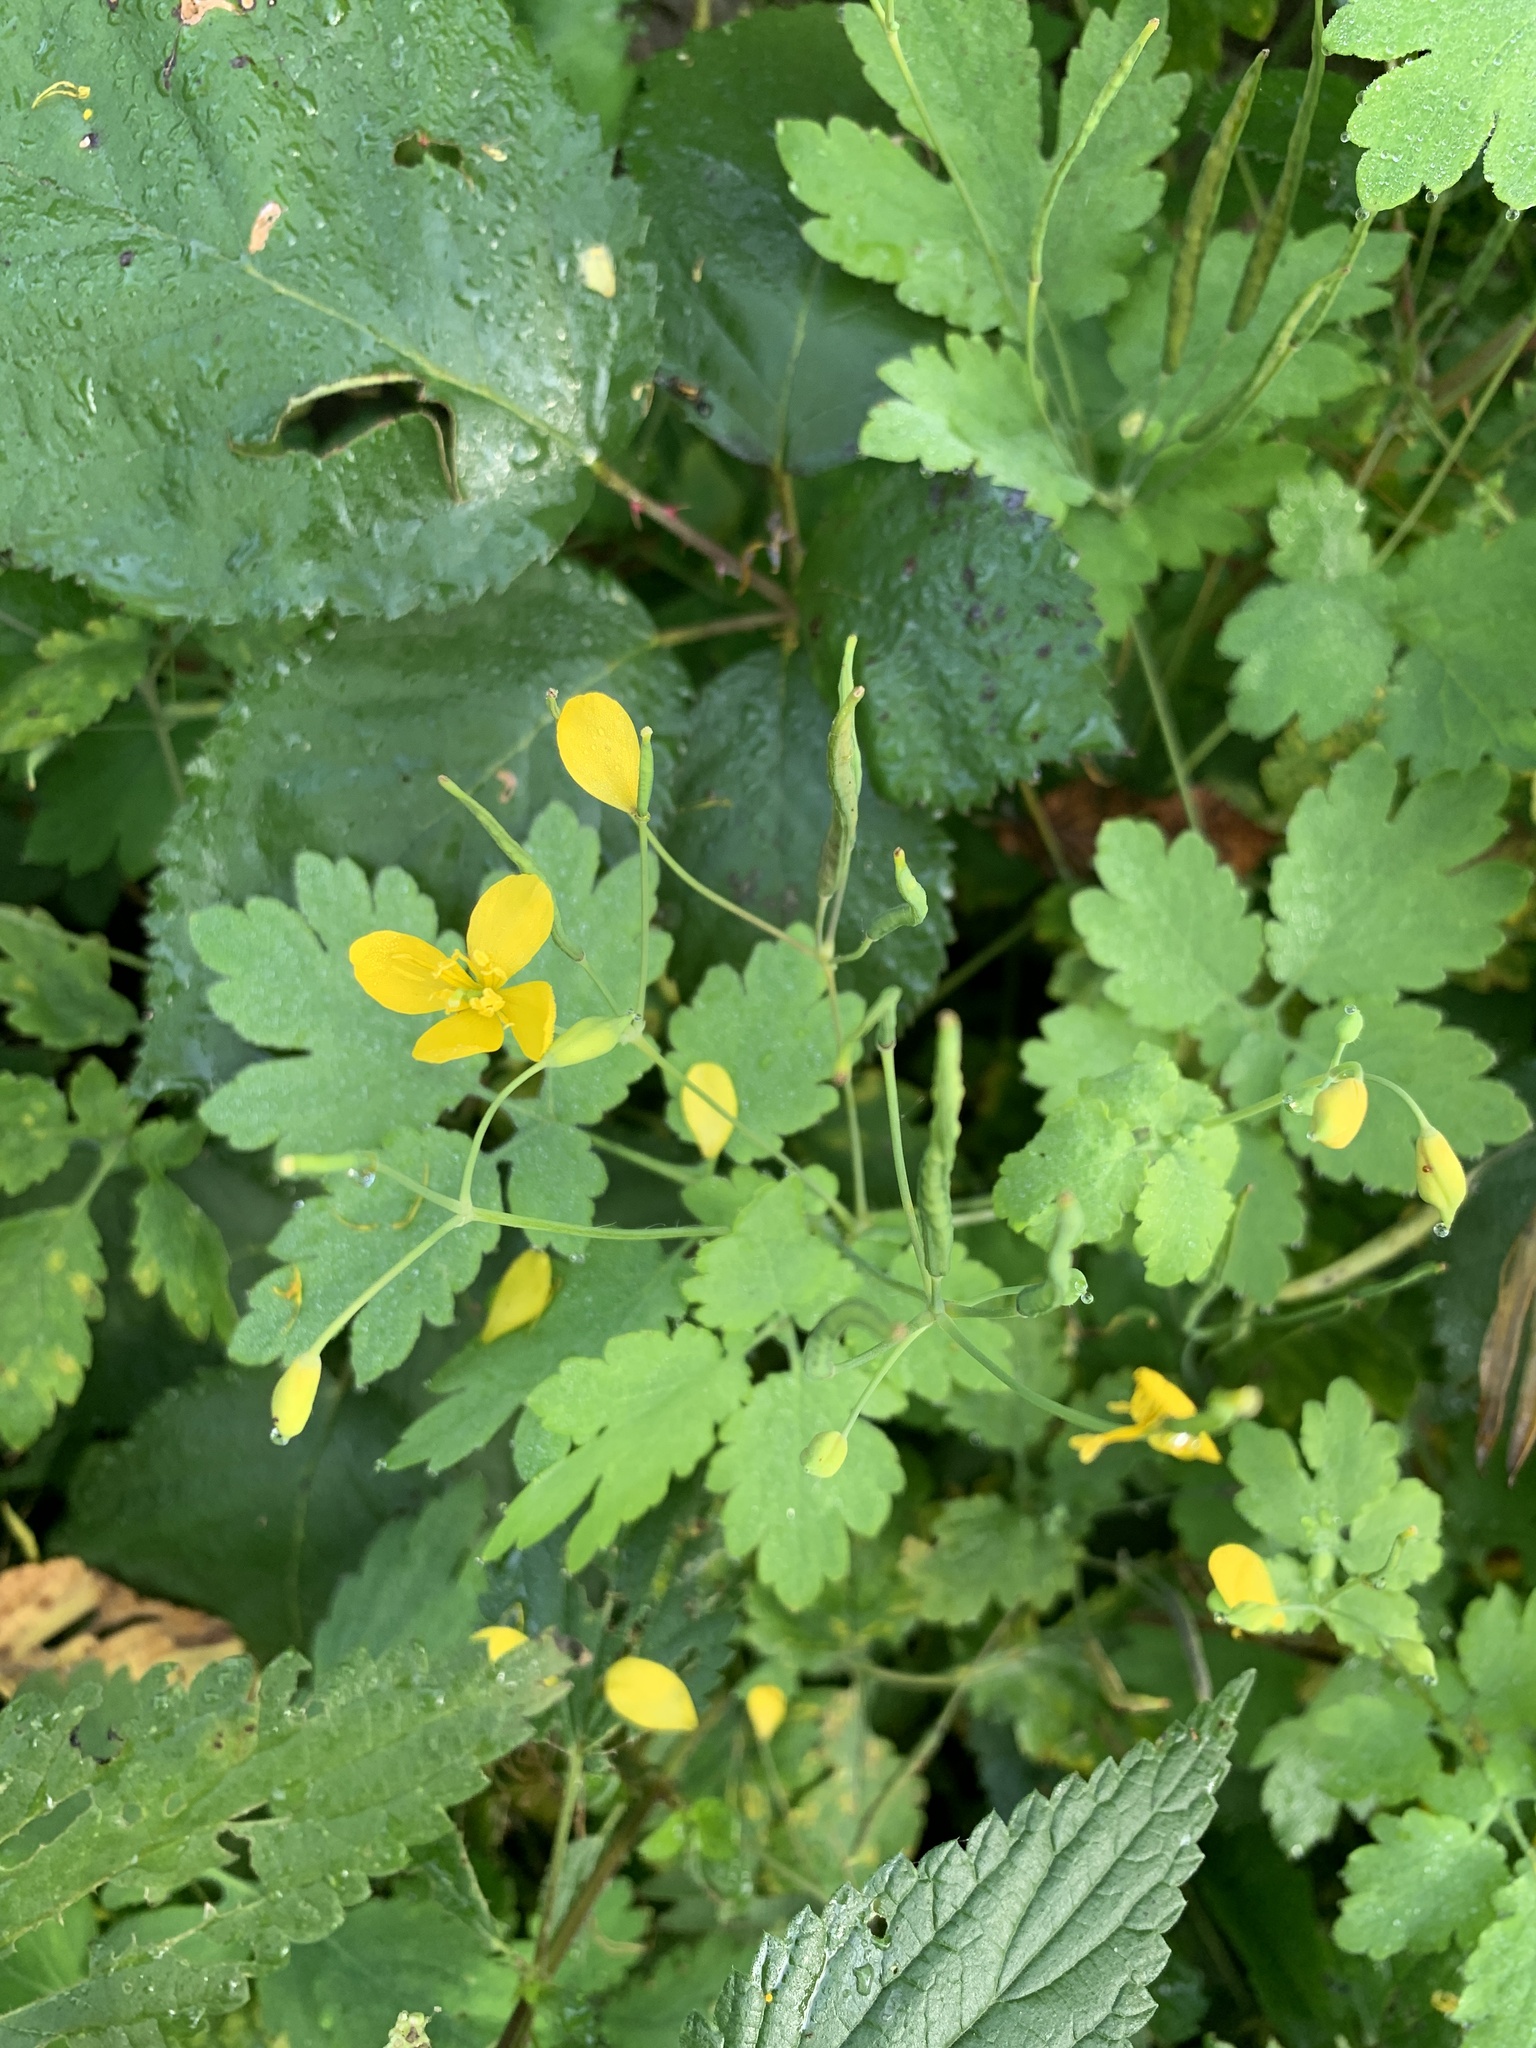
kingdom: Plantae
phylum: Tracheophyta
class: Magnoliopsida
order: Ranunculales
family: Papaveraceae
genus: Chelidonium
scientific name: Chelidonium majus
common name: Greater celandine
